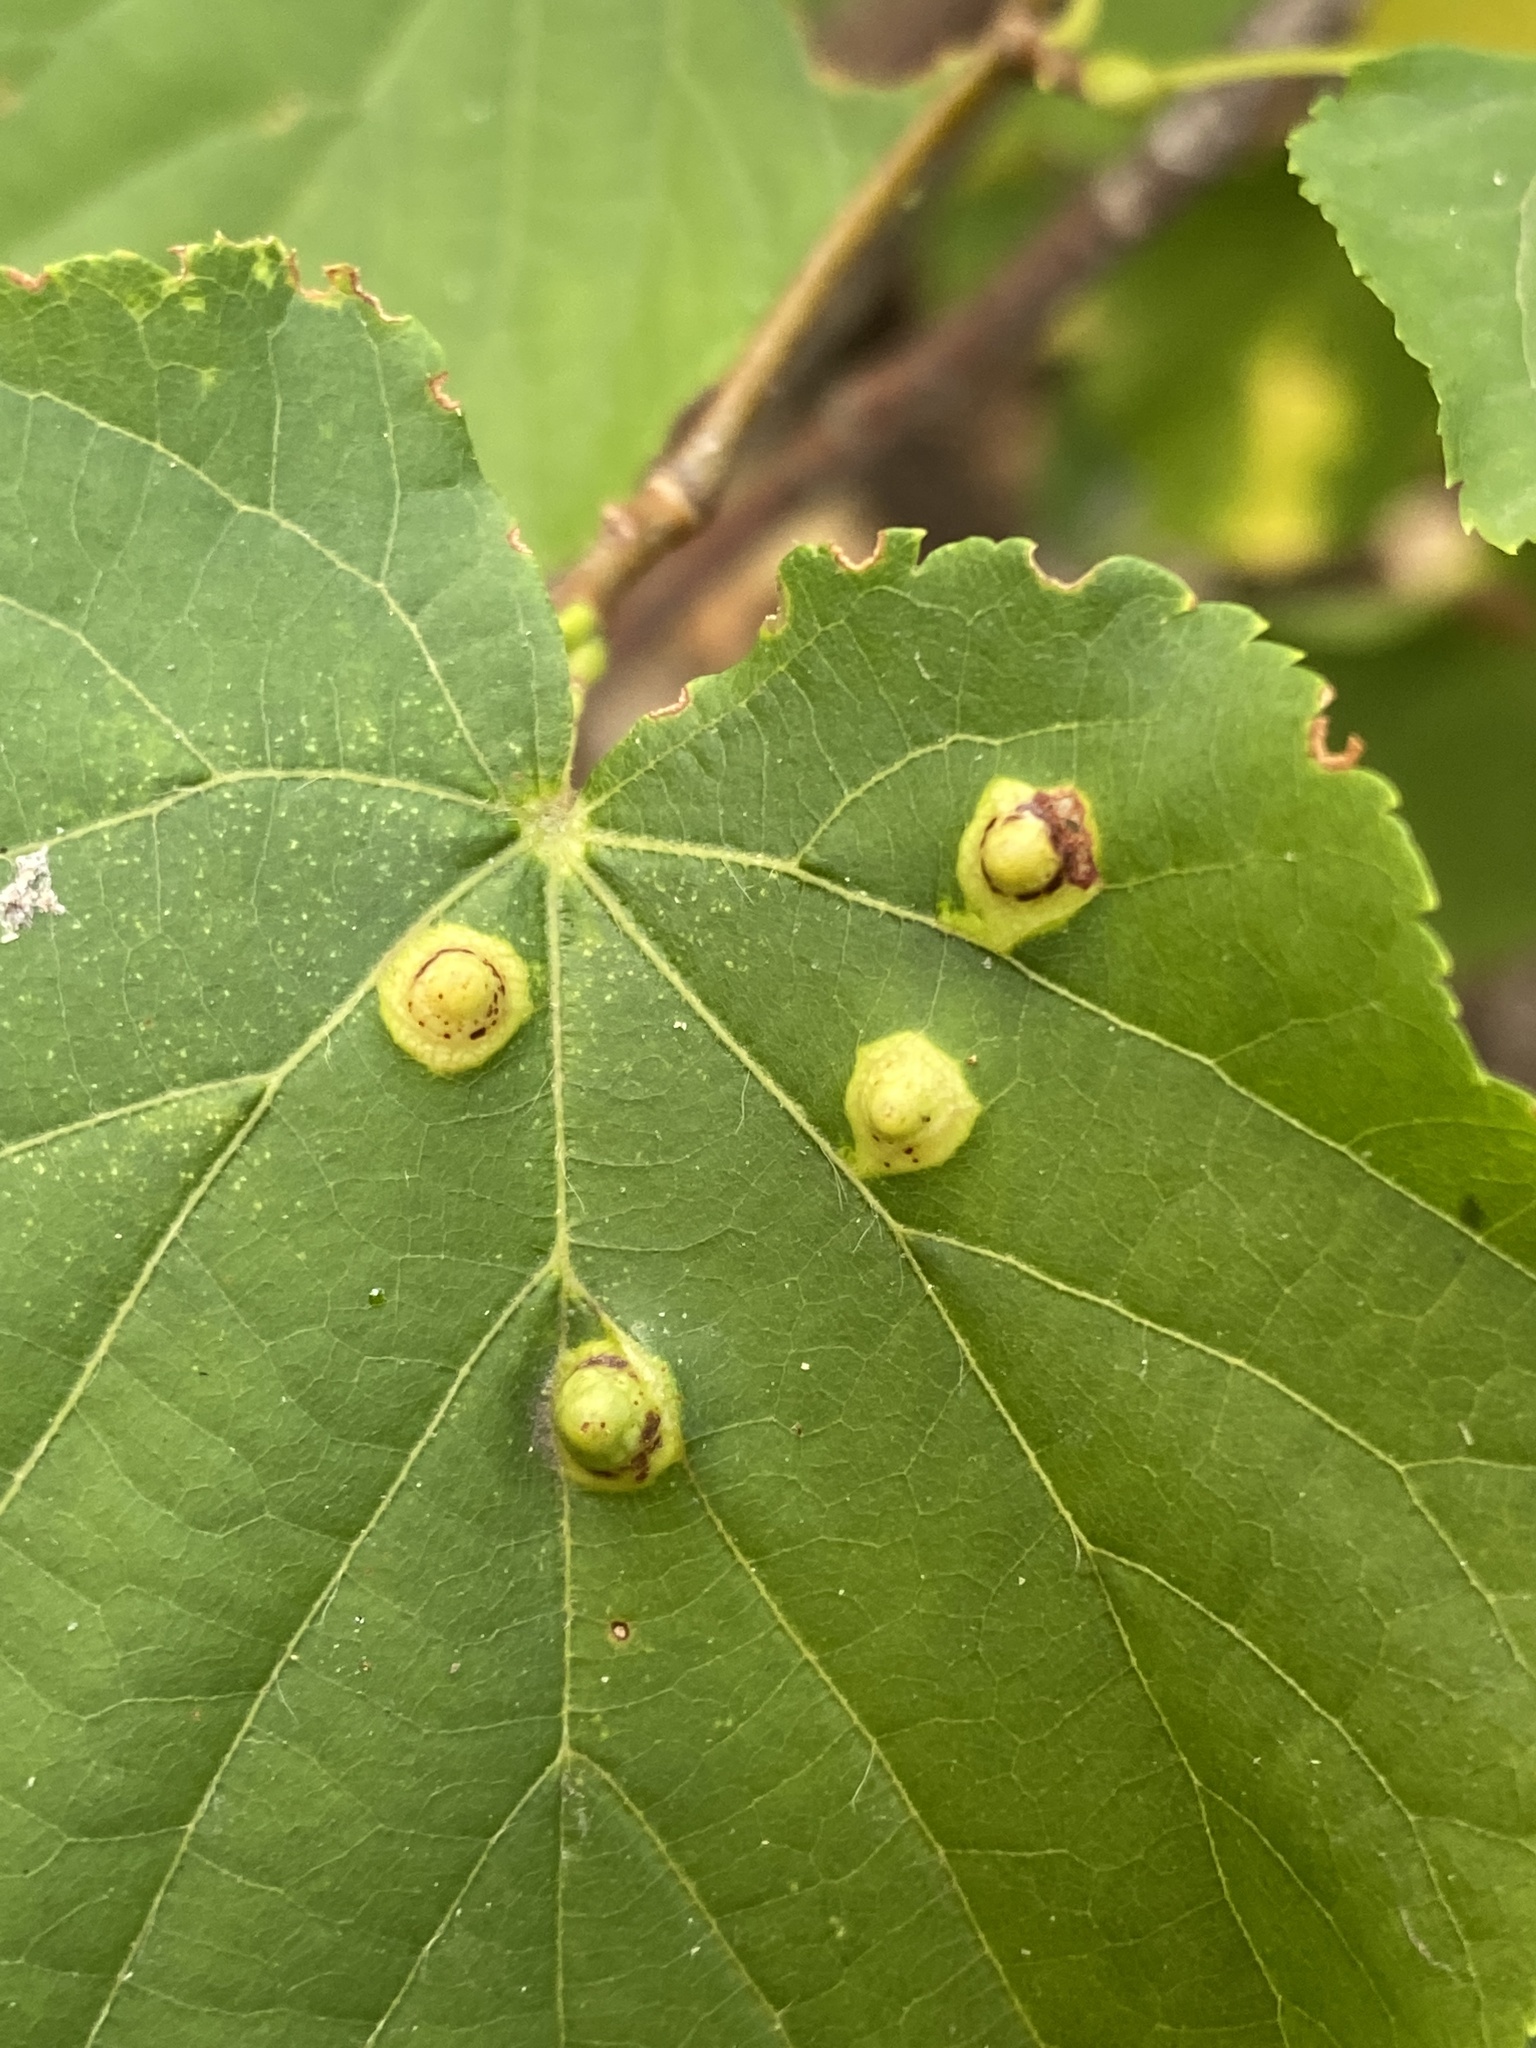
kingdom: Animalia
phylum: Arthropoda
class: Insecta
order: Diptera
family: Cecidomyiidae
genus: Didymomyia
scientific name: Didymomyia tiliacea
